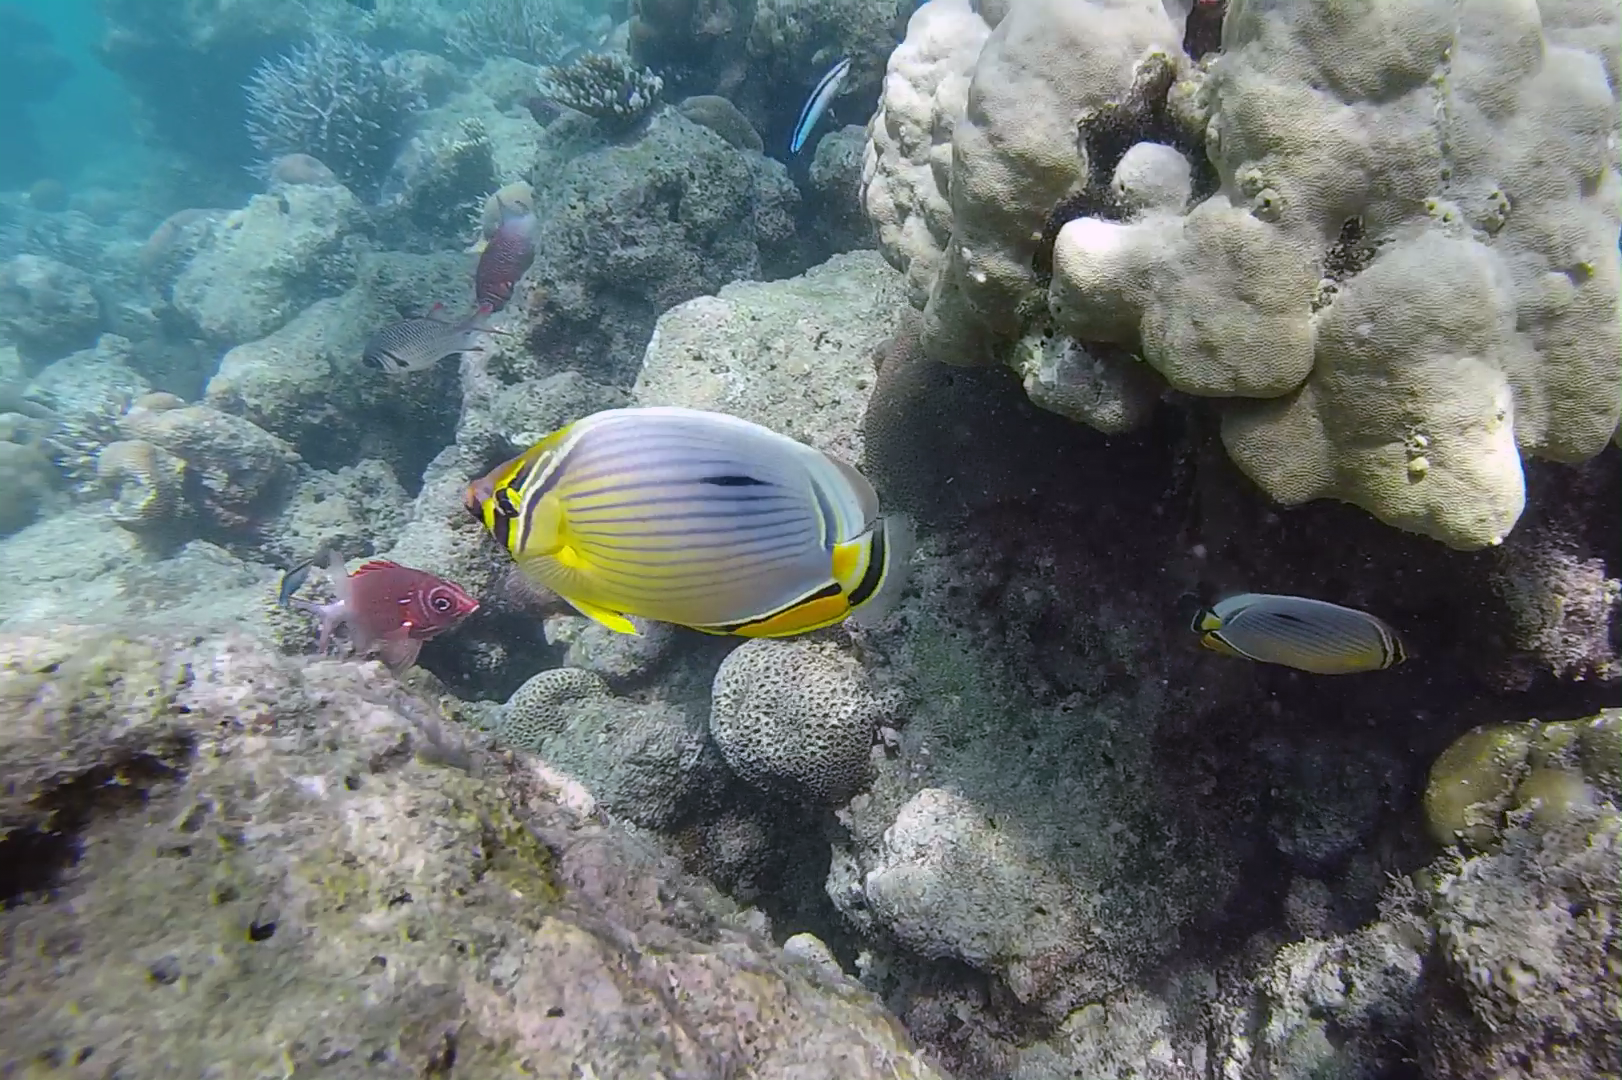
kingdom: Animalia
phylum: Chordata
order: Perciformes
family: Chaetodontidae
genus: Chaetodon
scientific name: Chaetodon trifasciatus
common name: Redfin butterflyfish
